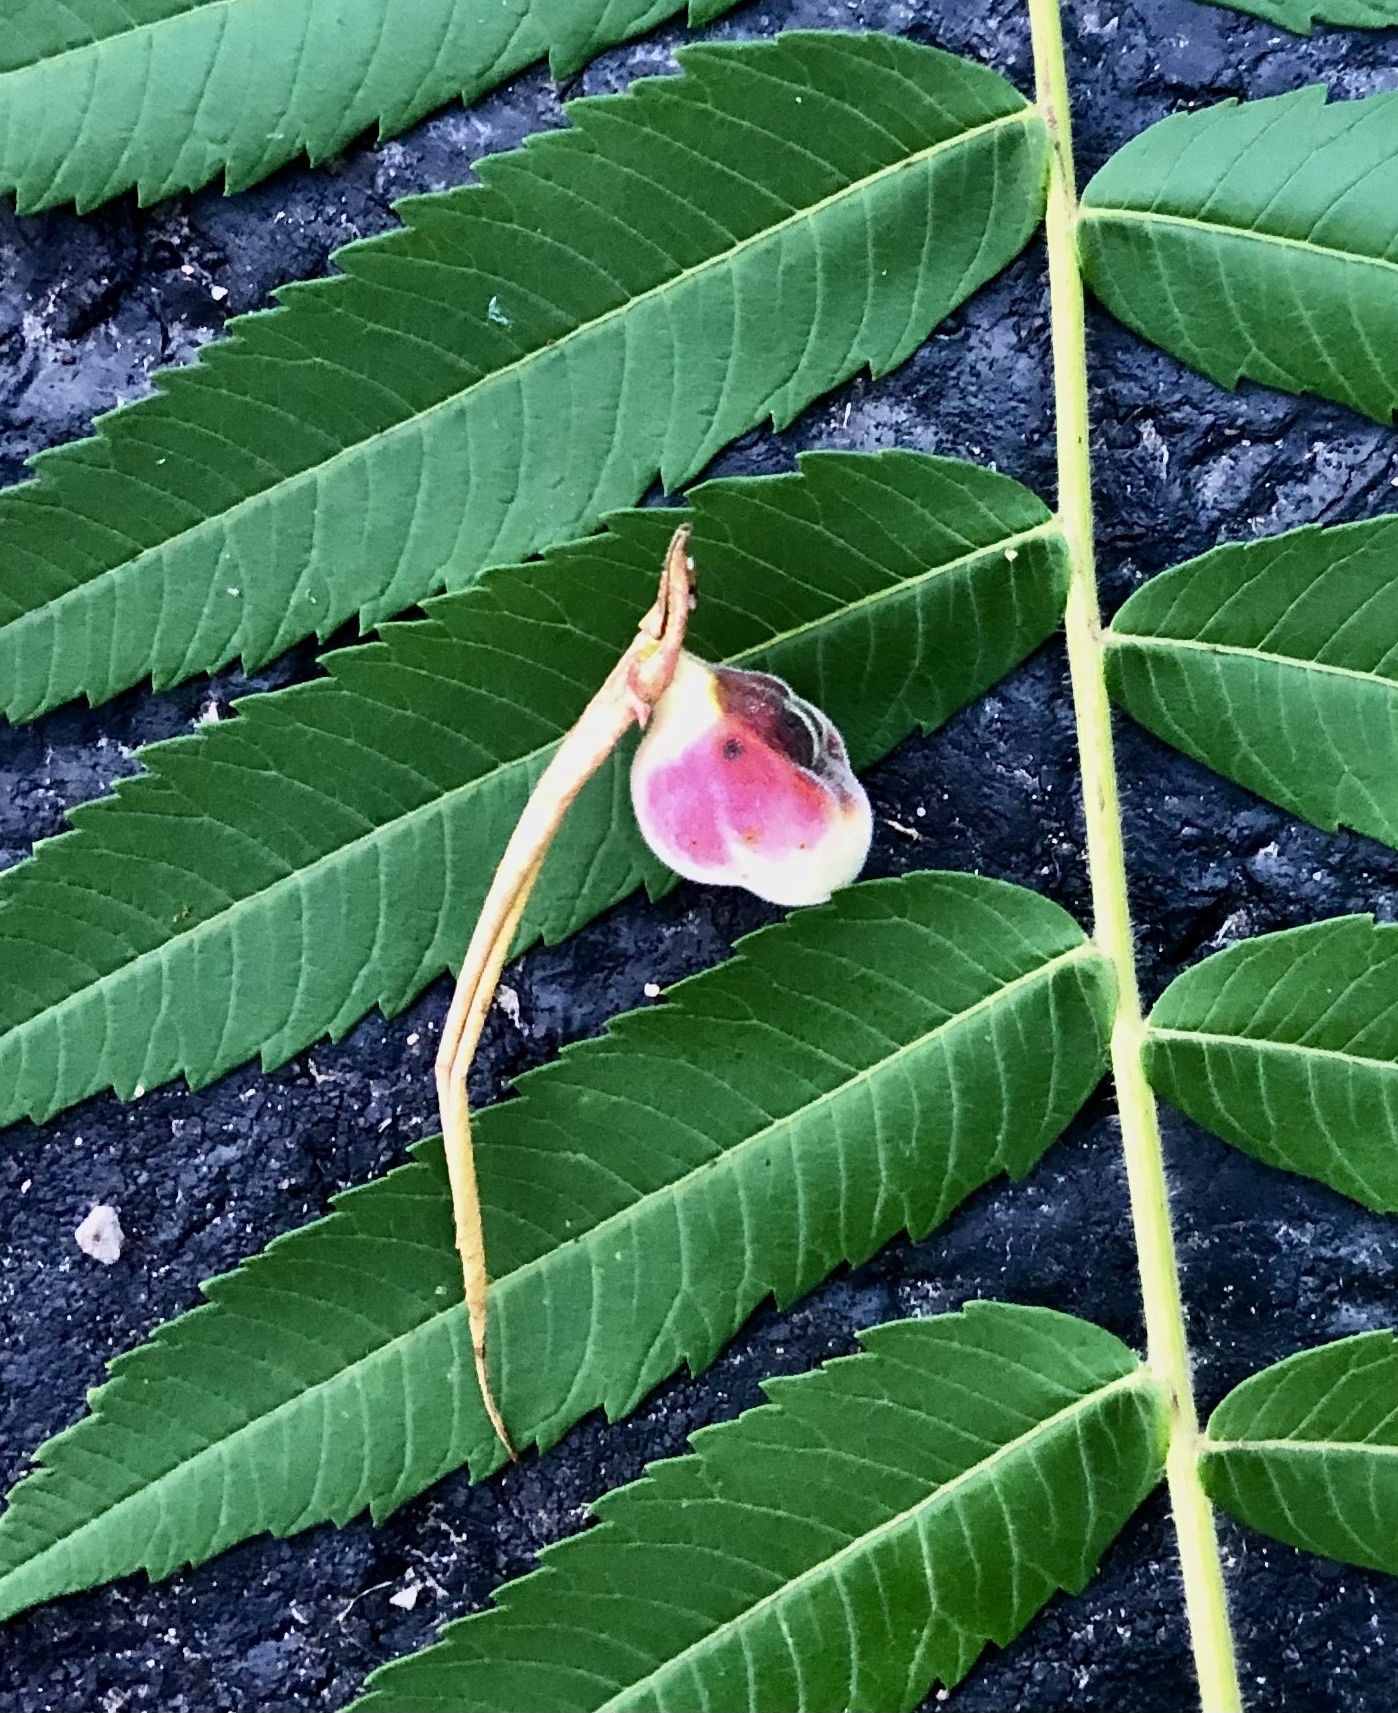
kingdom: Animalia
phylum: Arthropoda
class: Insecta
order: Hemiptera
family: Aphididae
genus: Melaphis
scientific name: Melaphis rhois
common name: Sumac gall aphid
